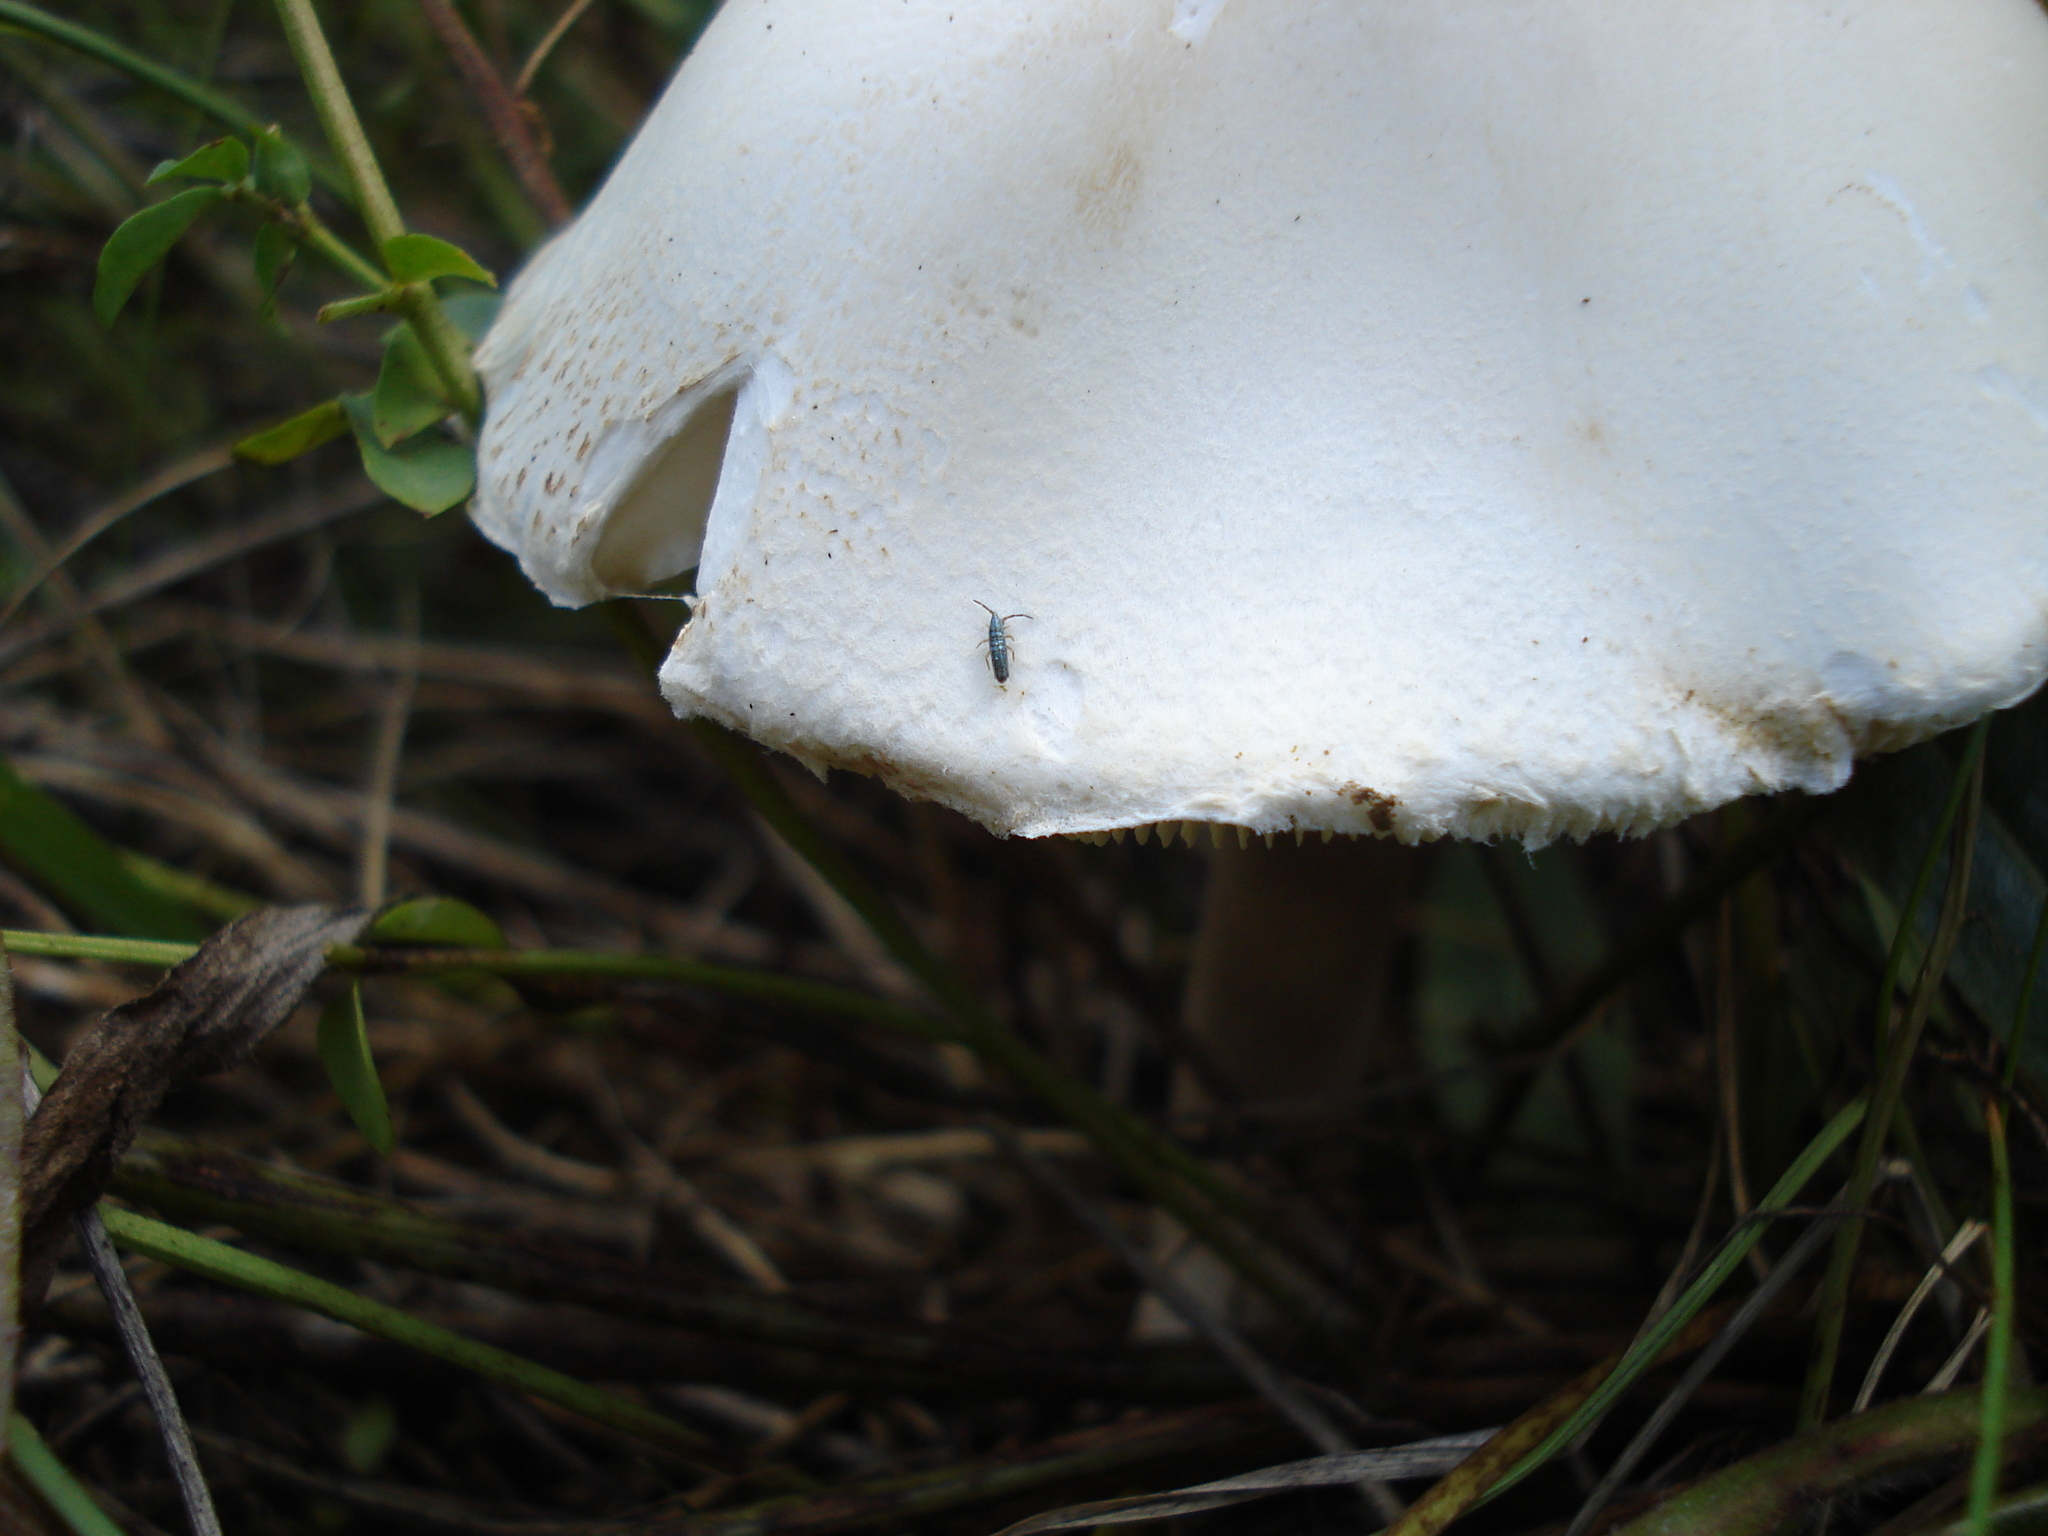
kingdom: Animalia
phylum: Arthropoda
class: Collembola
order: Entomobryomorpha
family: Entomobryidae
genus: Lepidocyrtus
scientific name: Lepidocyrtus paradoxus
